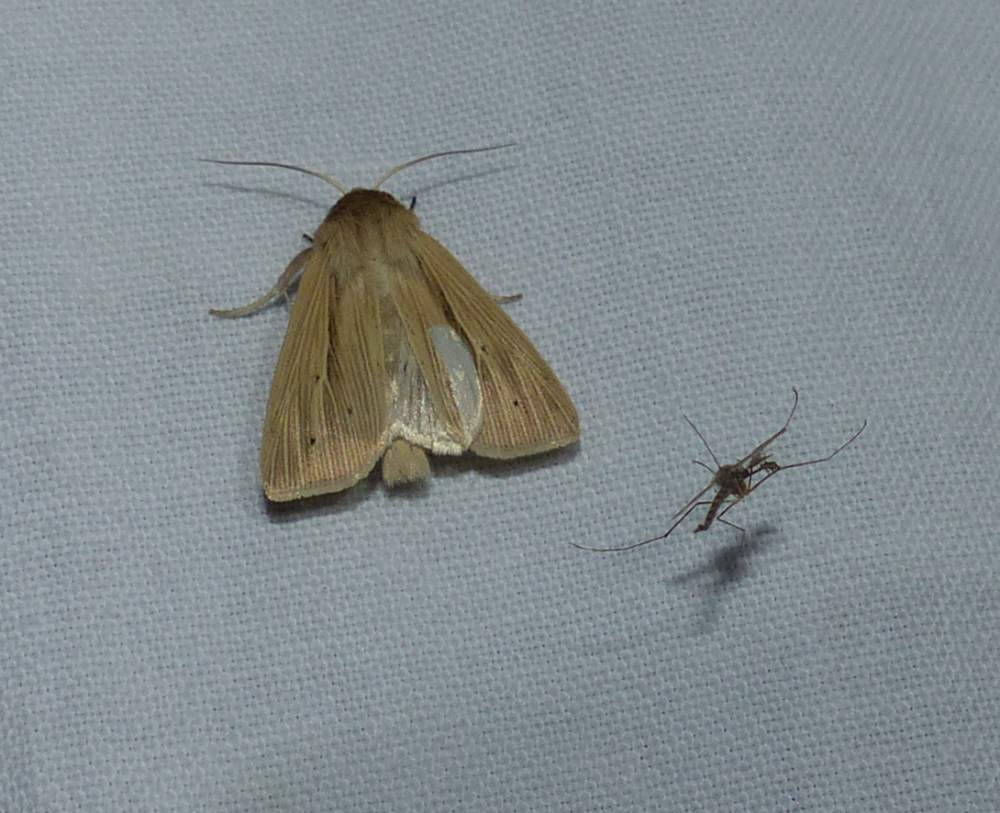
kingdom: Animalia
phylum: Arthropoda
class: Insecta
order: Lepidoptera
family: Noctuidae
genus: Mythimna
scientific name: Mythimna oxygala
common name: Lesser wainscot
